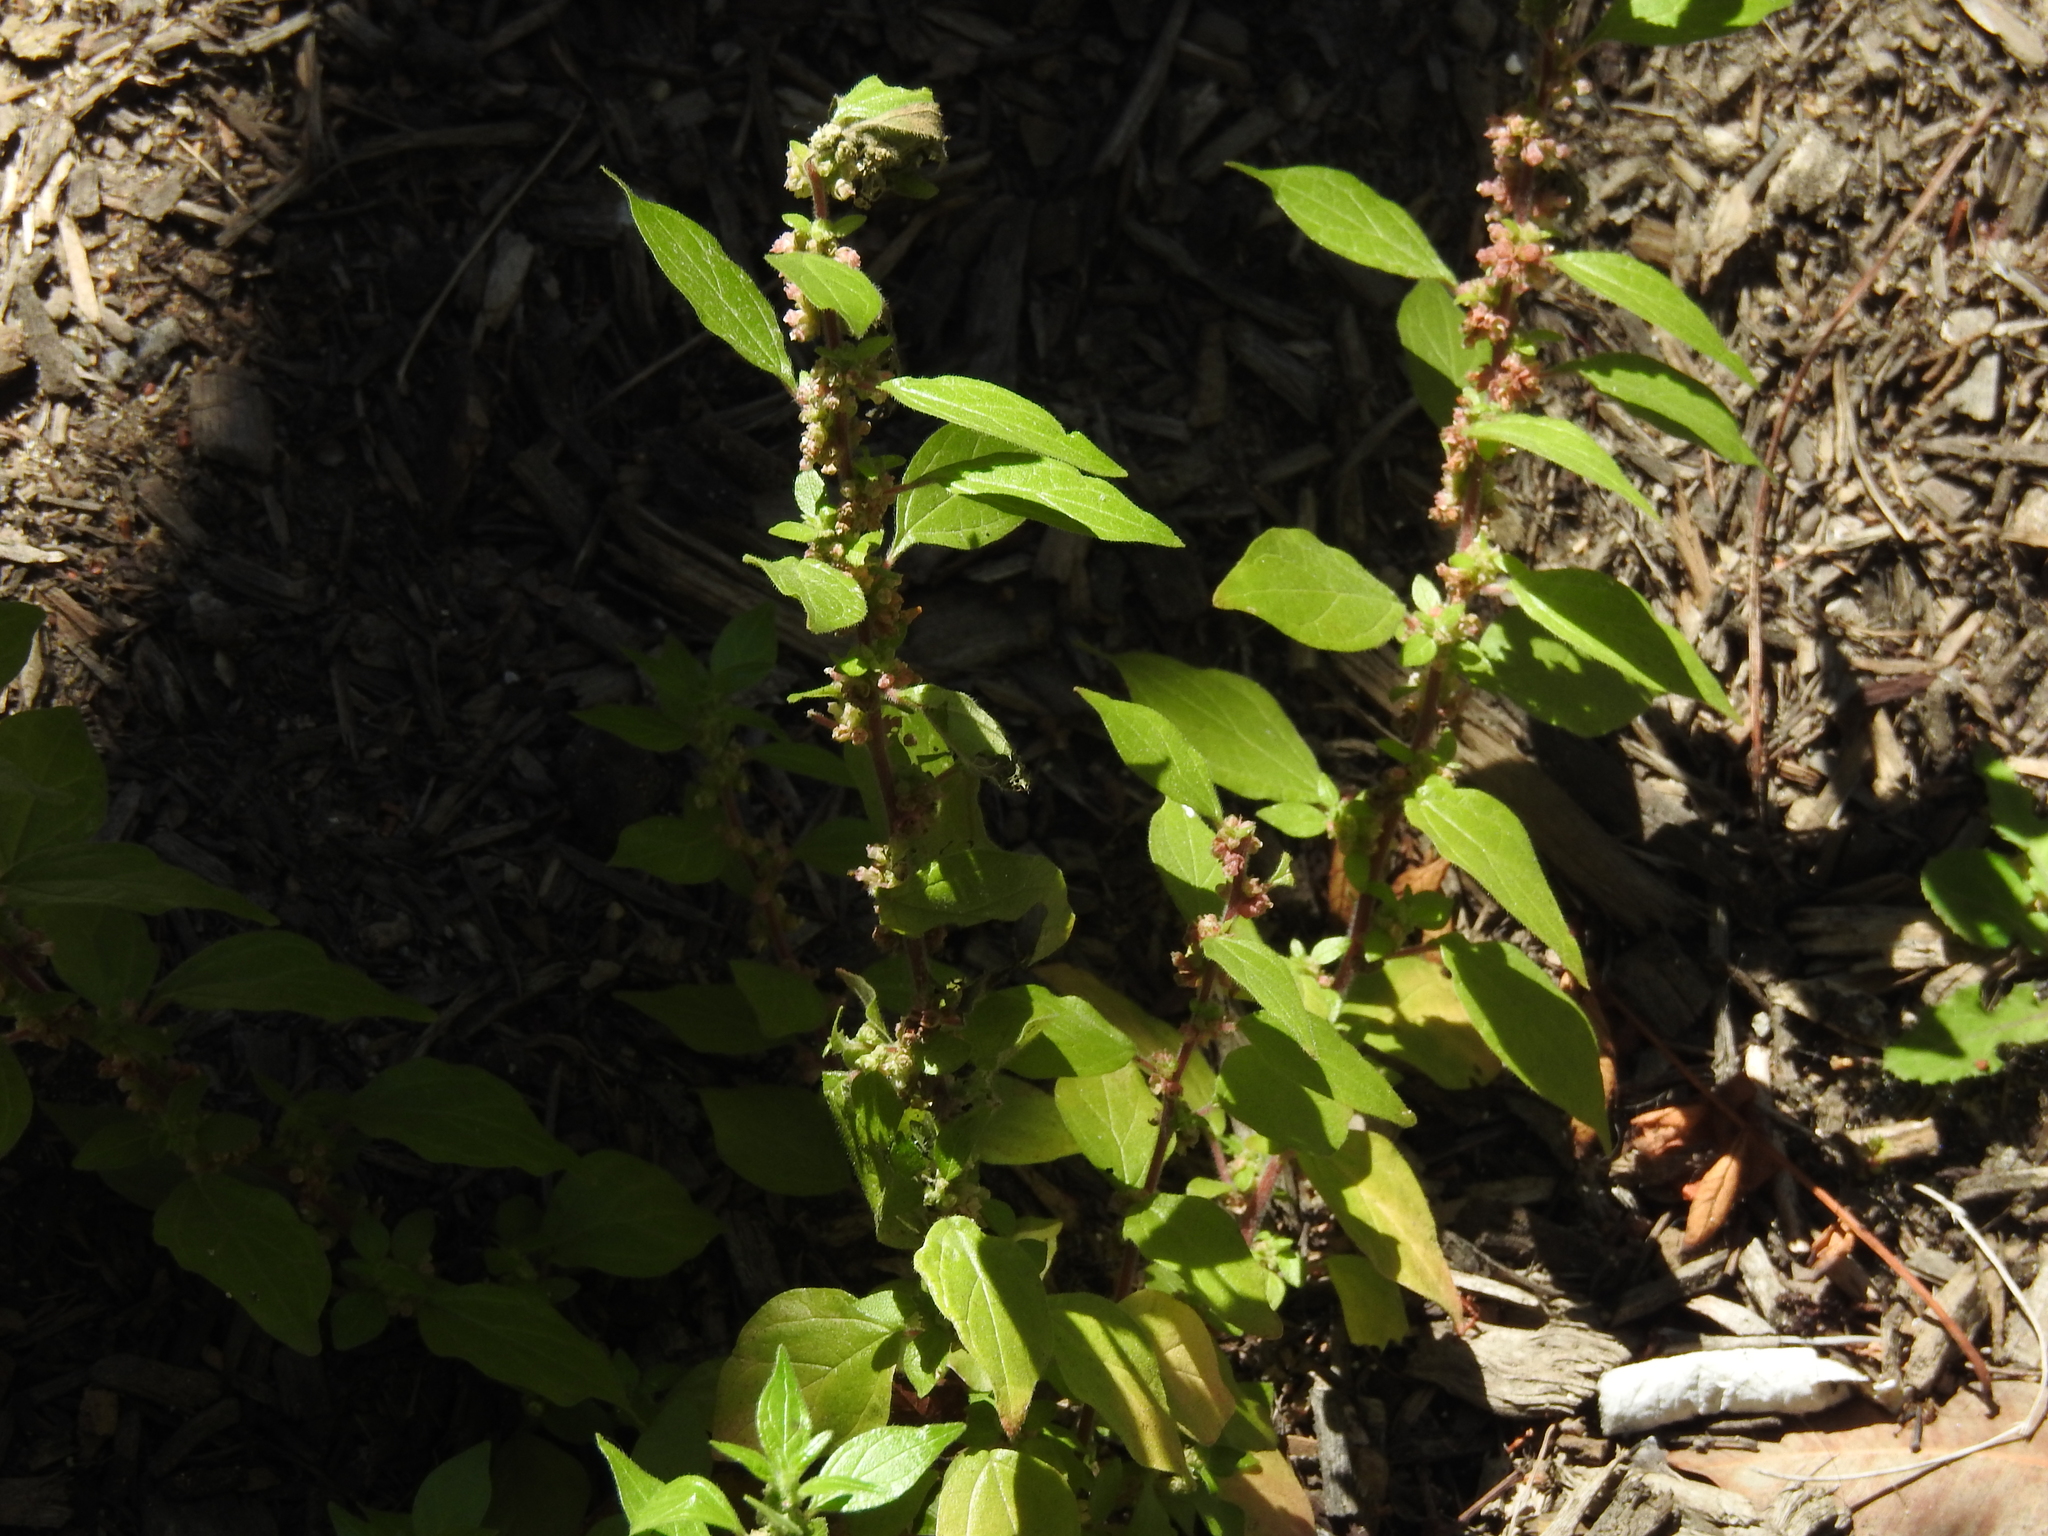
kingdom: Plantae
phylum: Tracheophyta
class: Magnoliopsida
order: Rosales
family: Urticaceae
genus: Parietaria
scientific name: Parietaria judaica
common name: Pellitory-of-the-wall
